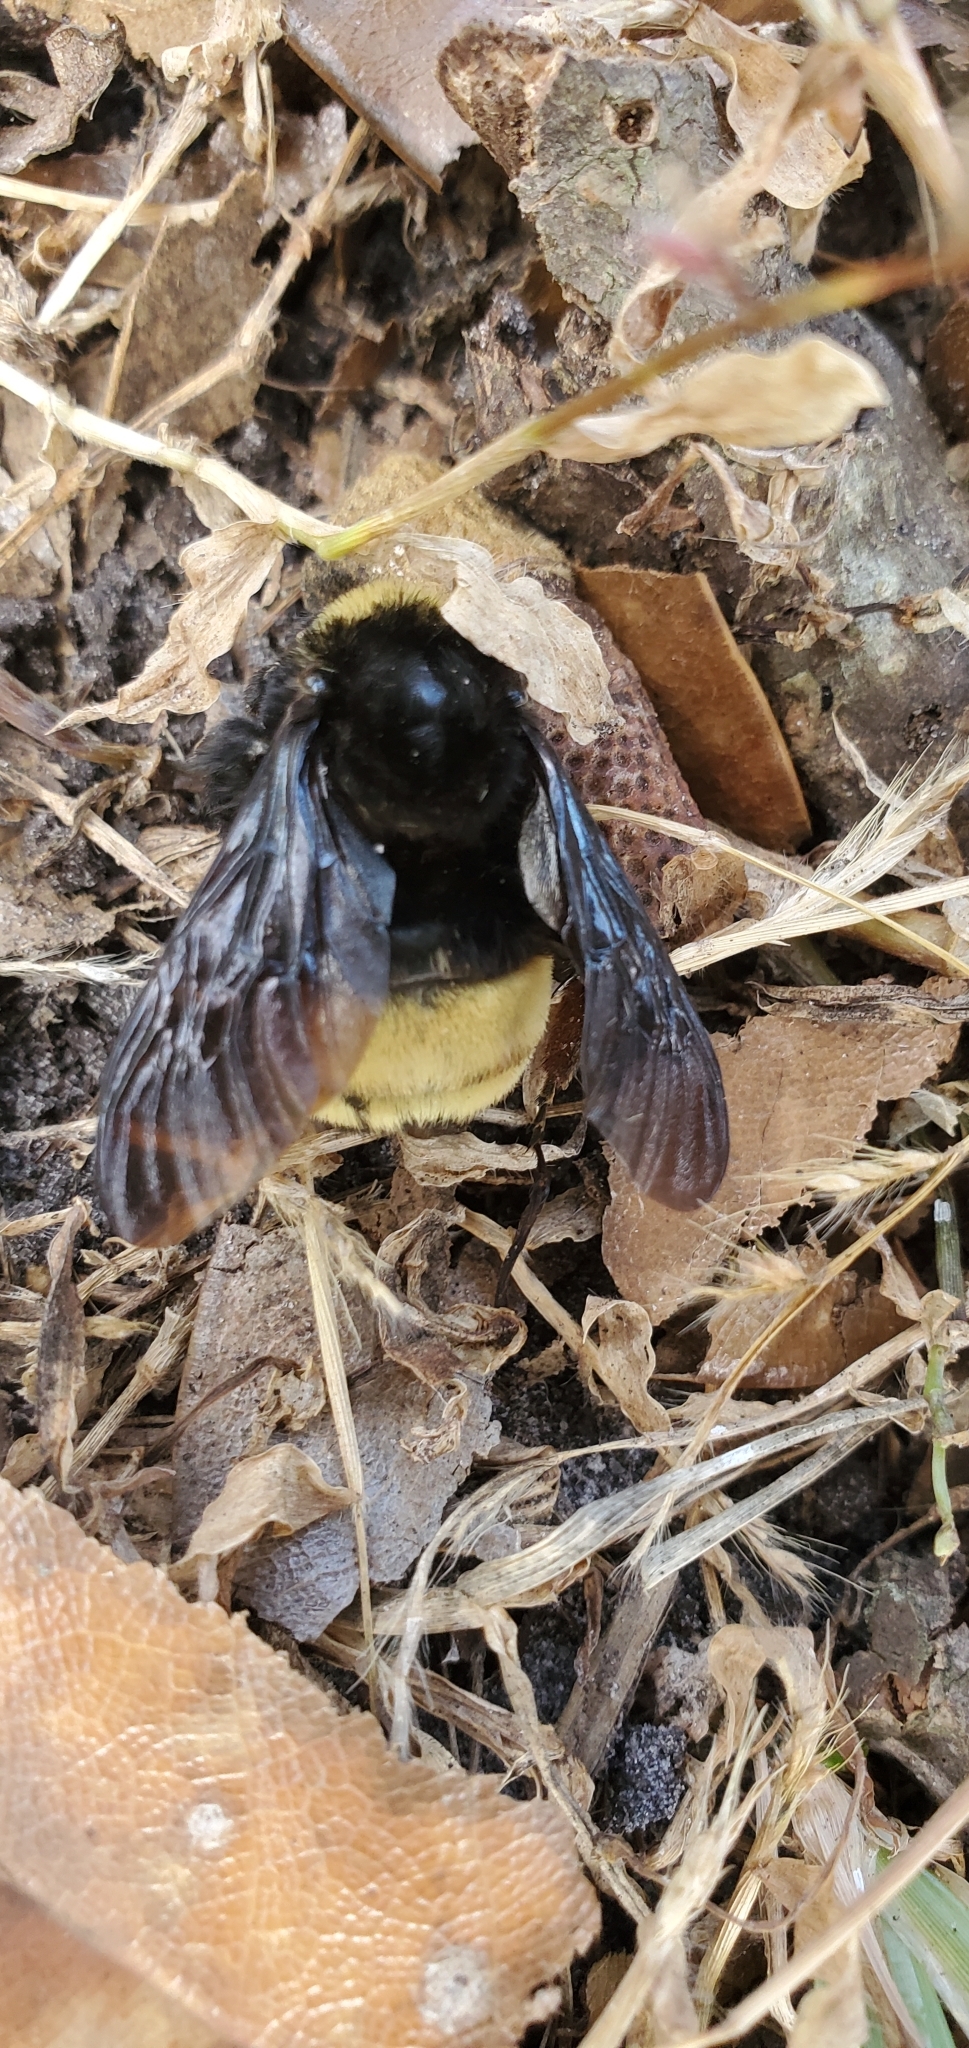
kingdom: Animalia
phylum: Arthropoda
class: Insecta
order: Hymenoptera
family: Apidae
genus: Bombus
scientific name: Bombus pensylvanicus
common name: Bumble bee
